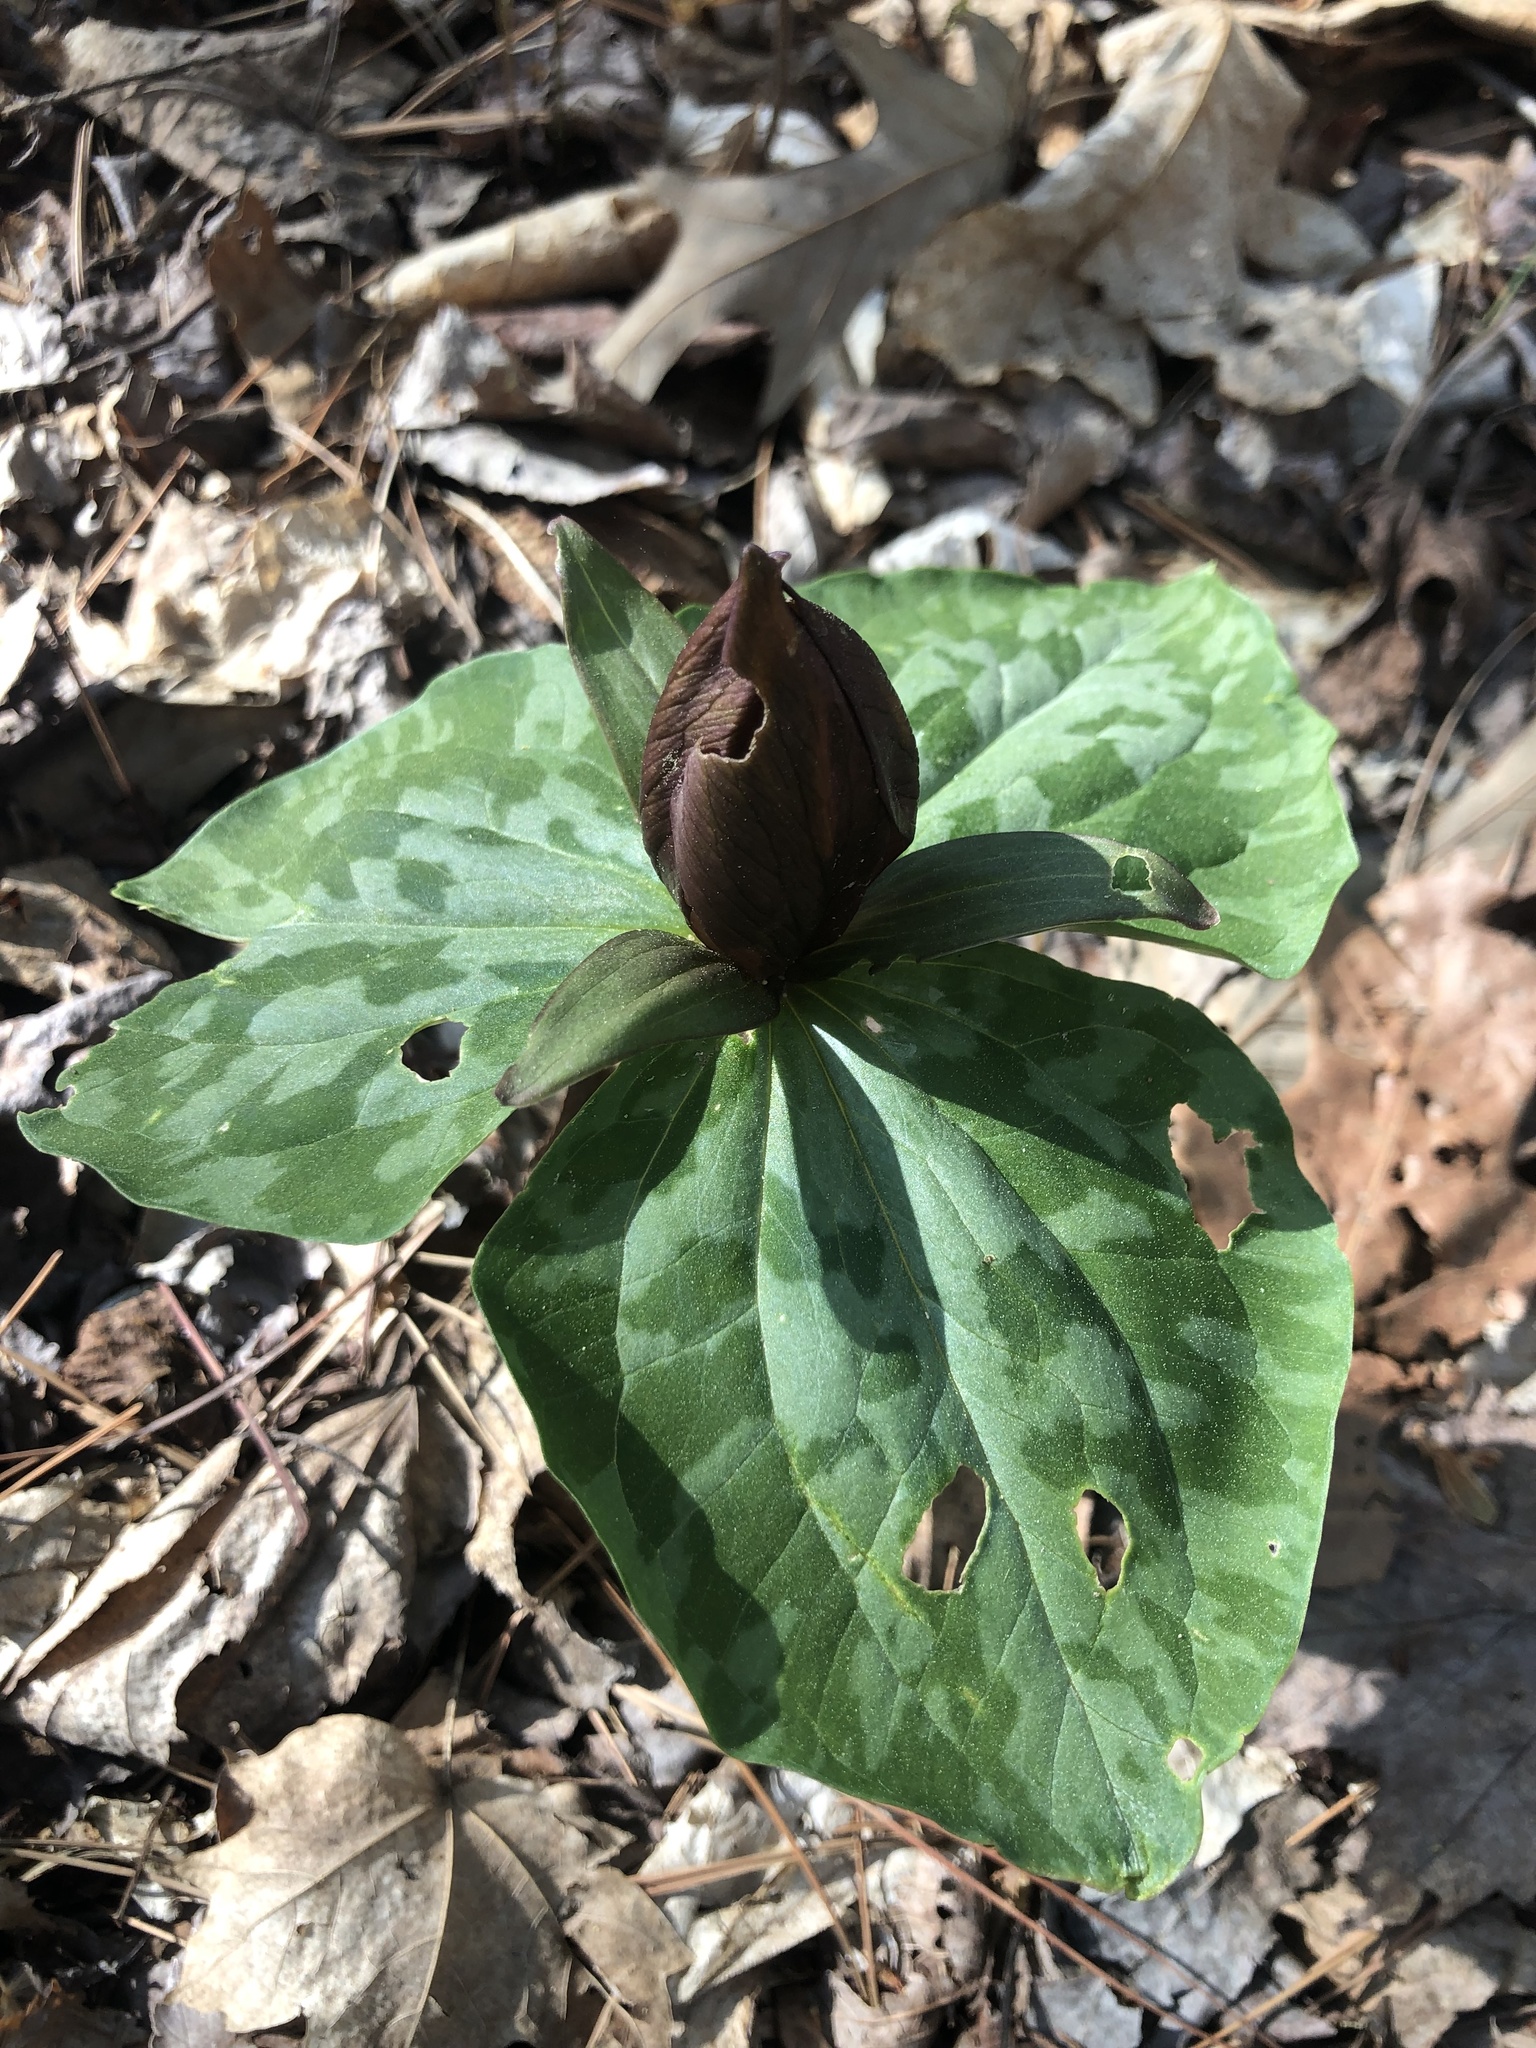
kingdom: Plantae
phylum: Tracheophyta
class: Liliopsida
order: Liliales
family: Melanthiaceae
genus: Trillium
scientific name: Trillium cuneatum
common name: Cuneate trillium
